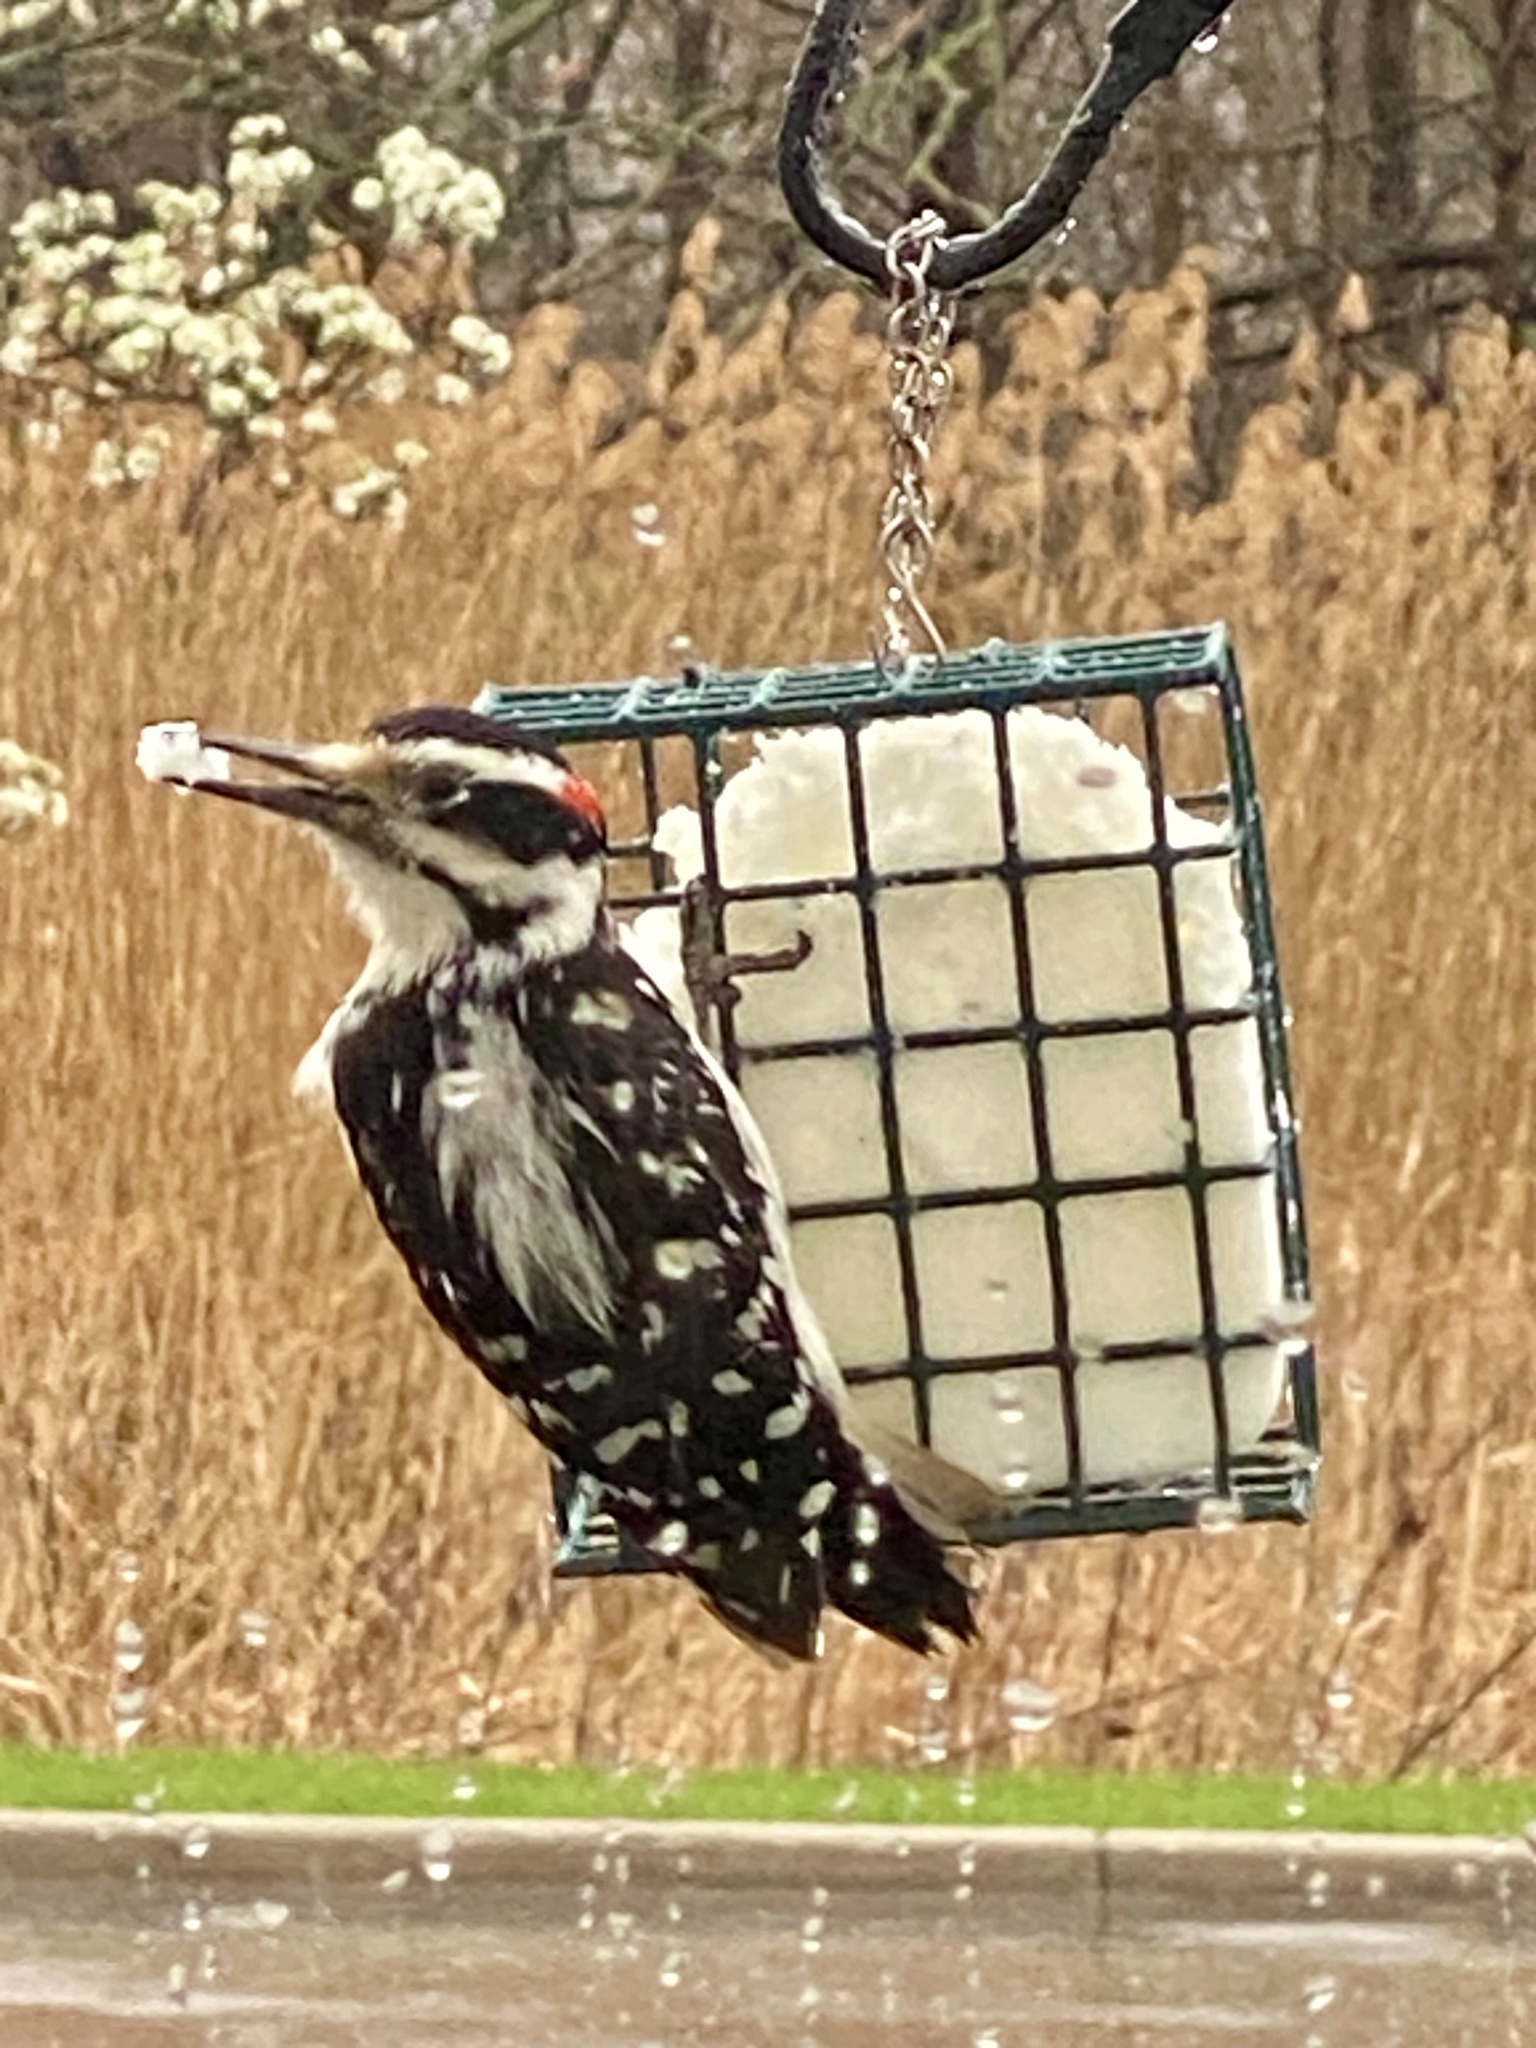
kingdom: Animalia
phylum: Chordata
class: Aves
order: Piciformes
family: Picidae
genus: Leuconotopicus
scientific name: Leuconotopicus villosus
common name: Hairy woodpecker
